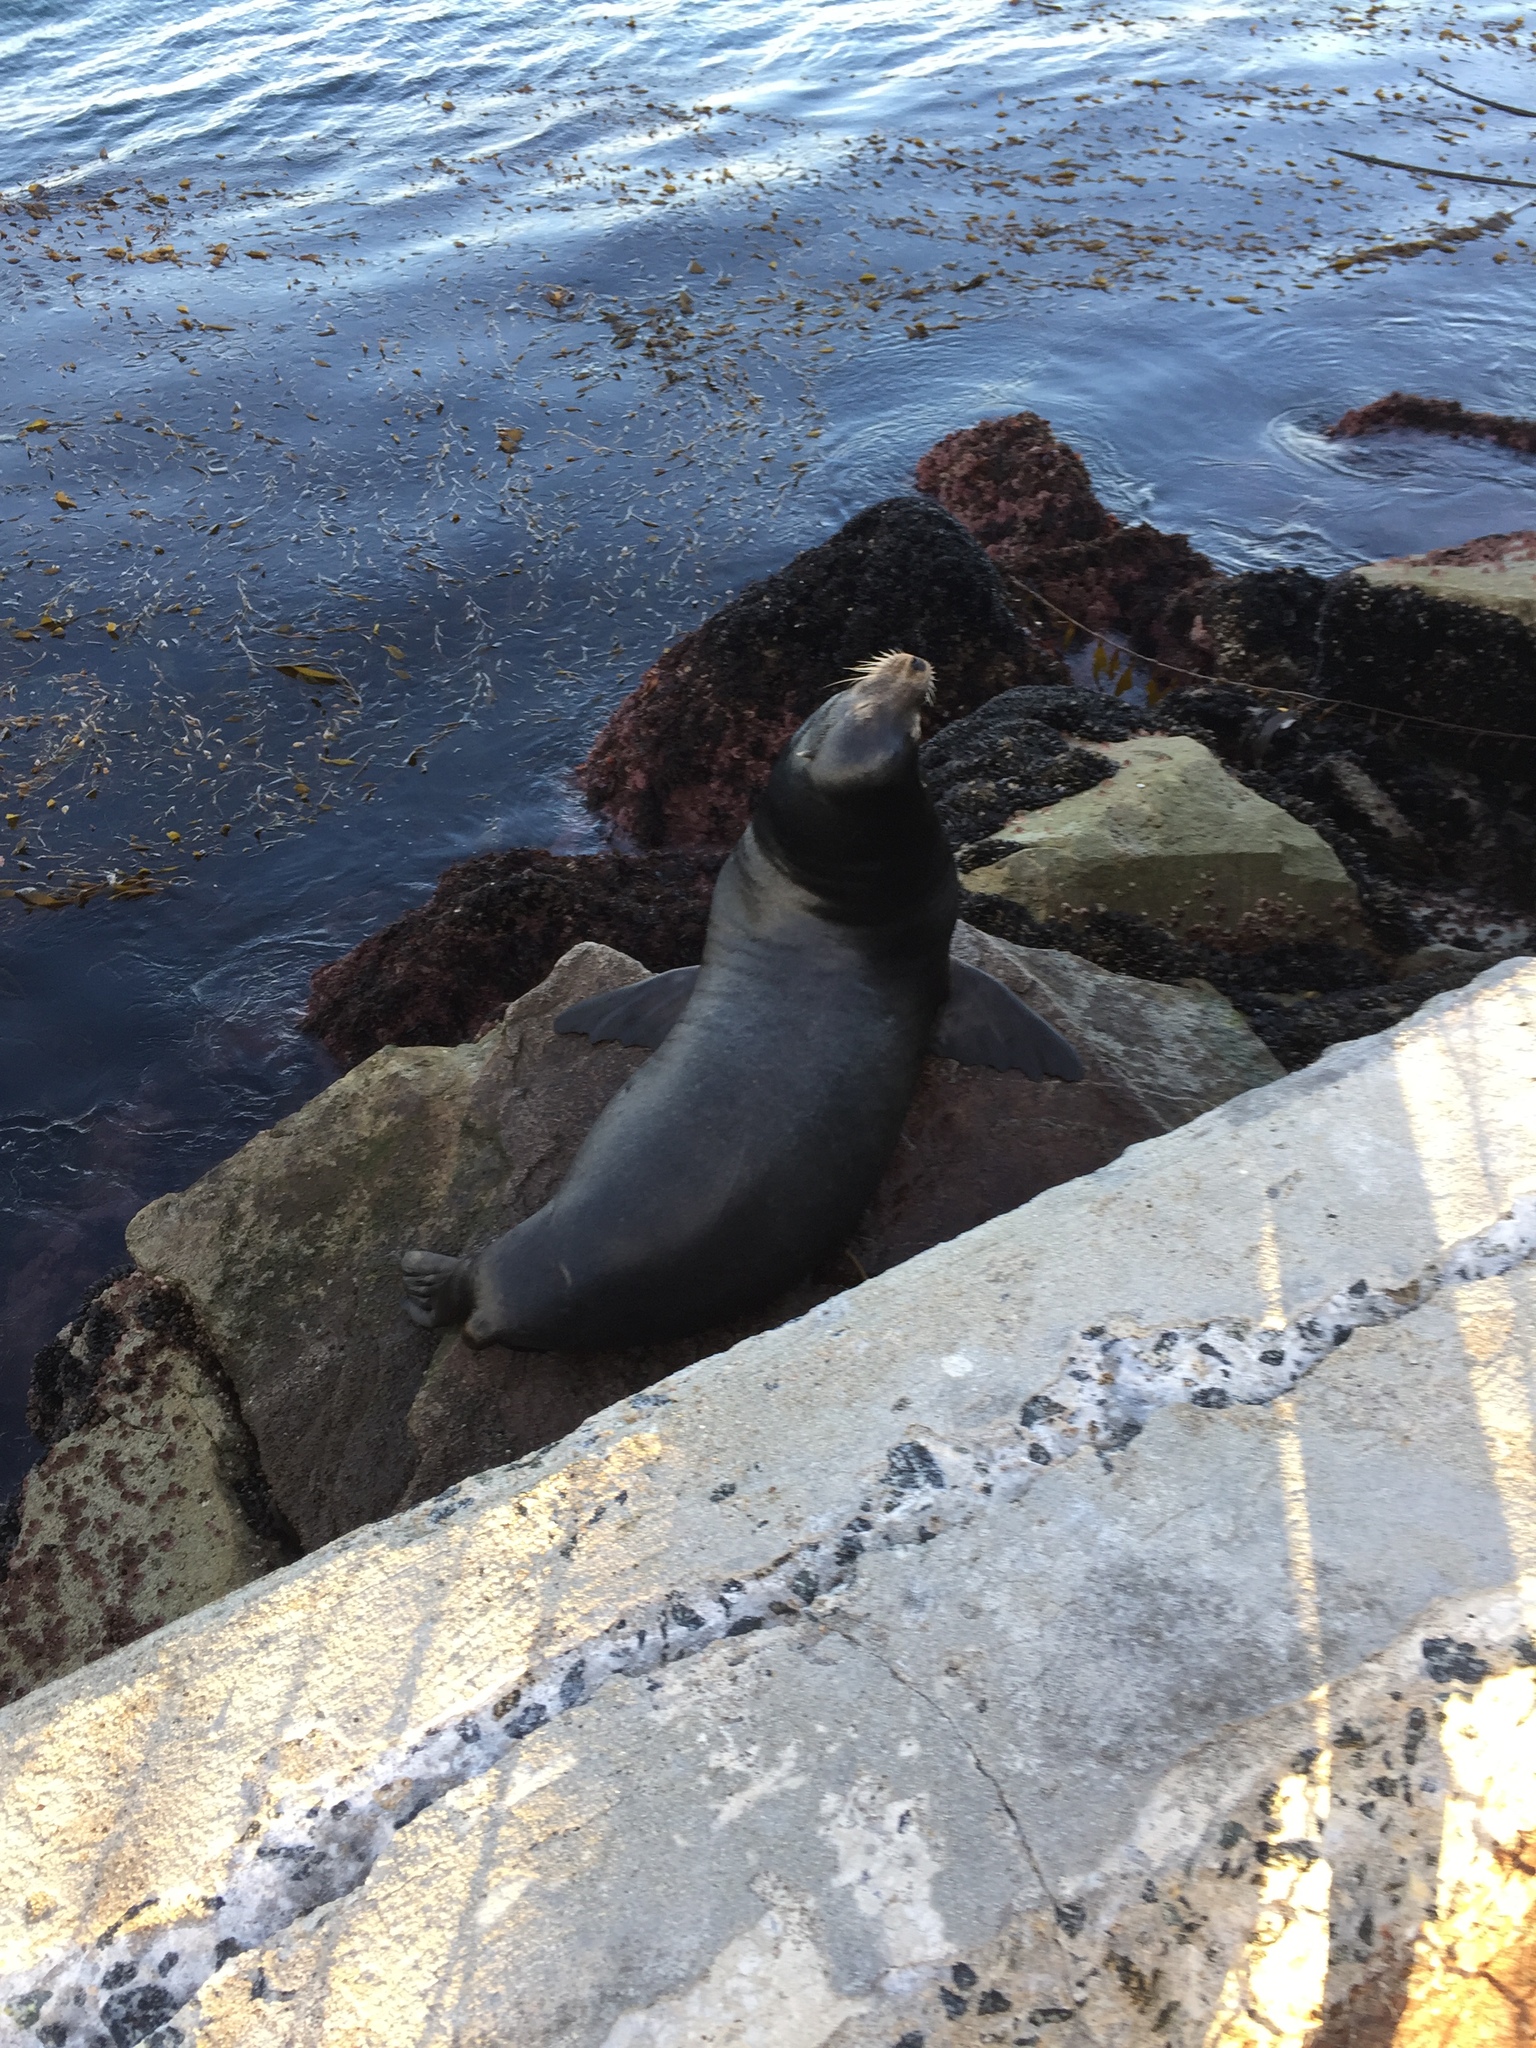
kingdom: Animalia
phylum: Chordata
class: Mammalia
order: Carnivora
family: Otariidae
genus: Zalophus
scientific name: Zalophus californianus
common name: California sea lion
